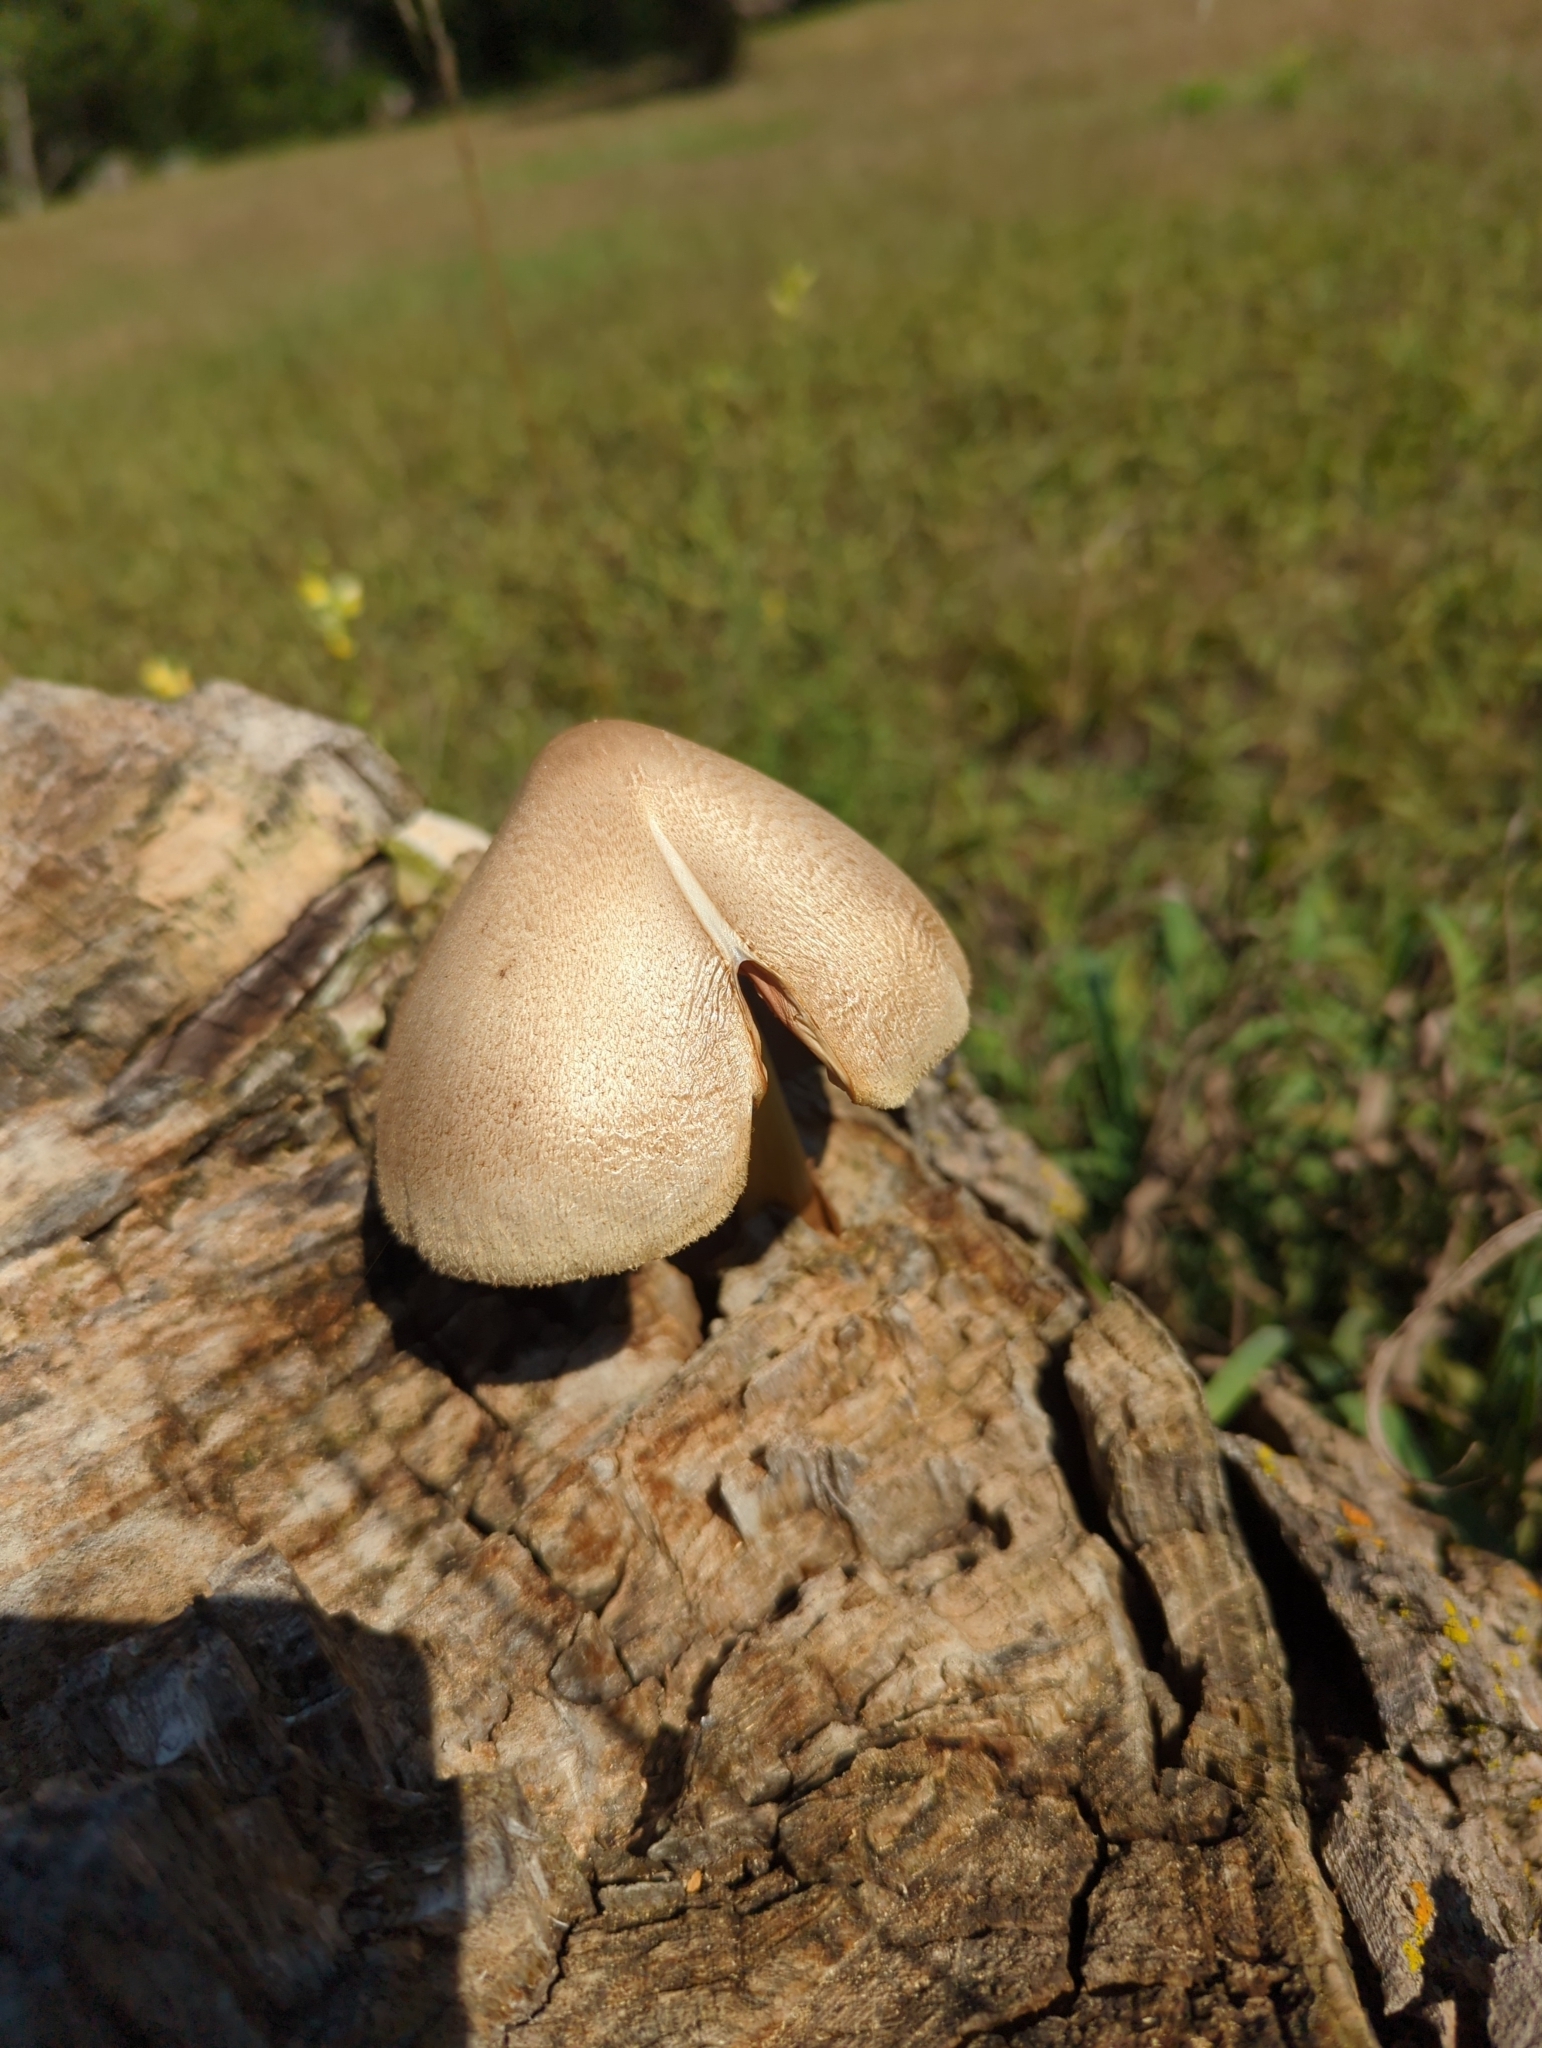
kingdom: Fungi
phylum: Basidiomycota
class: Agaricomycetes
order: Agaricales
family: Pluteaceae
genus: Volvariella
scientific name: Volvariella bombycina
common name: Silky rosegill
